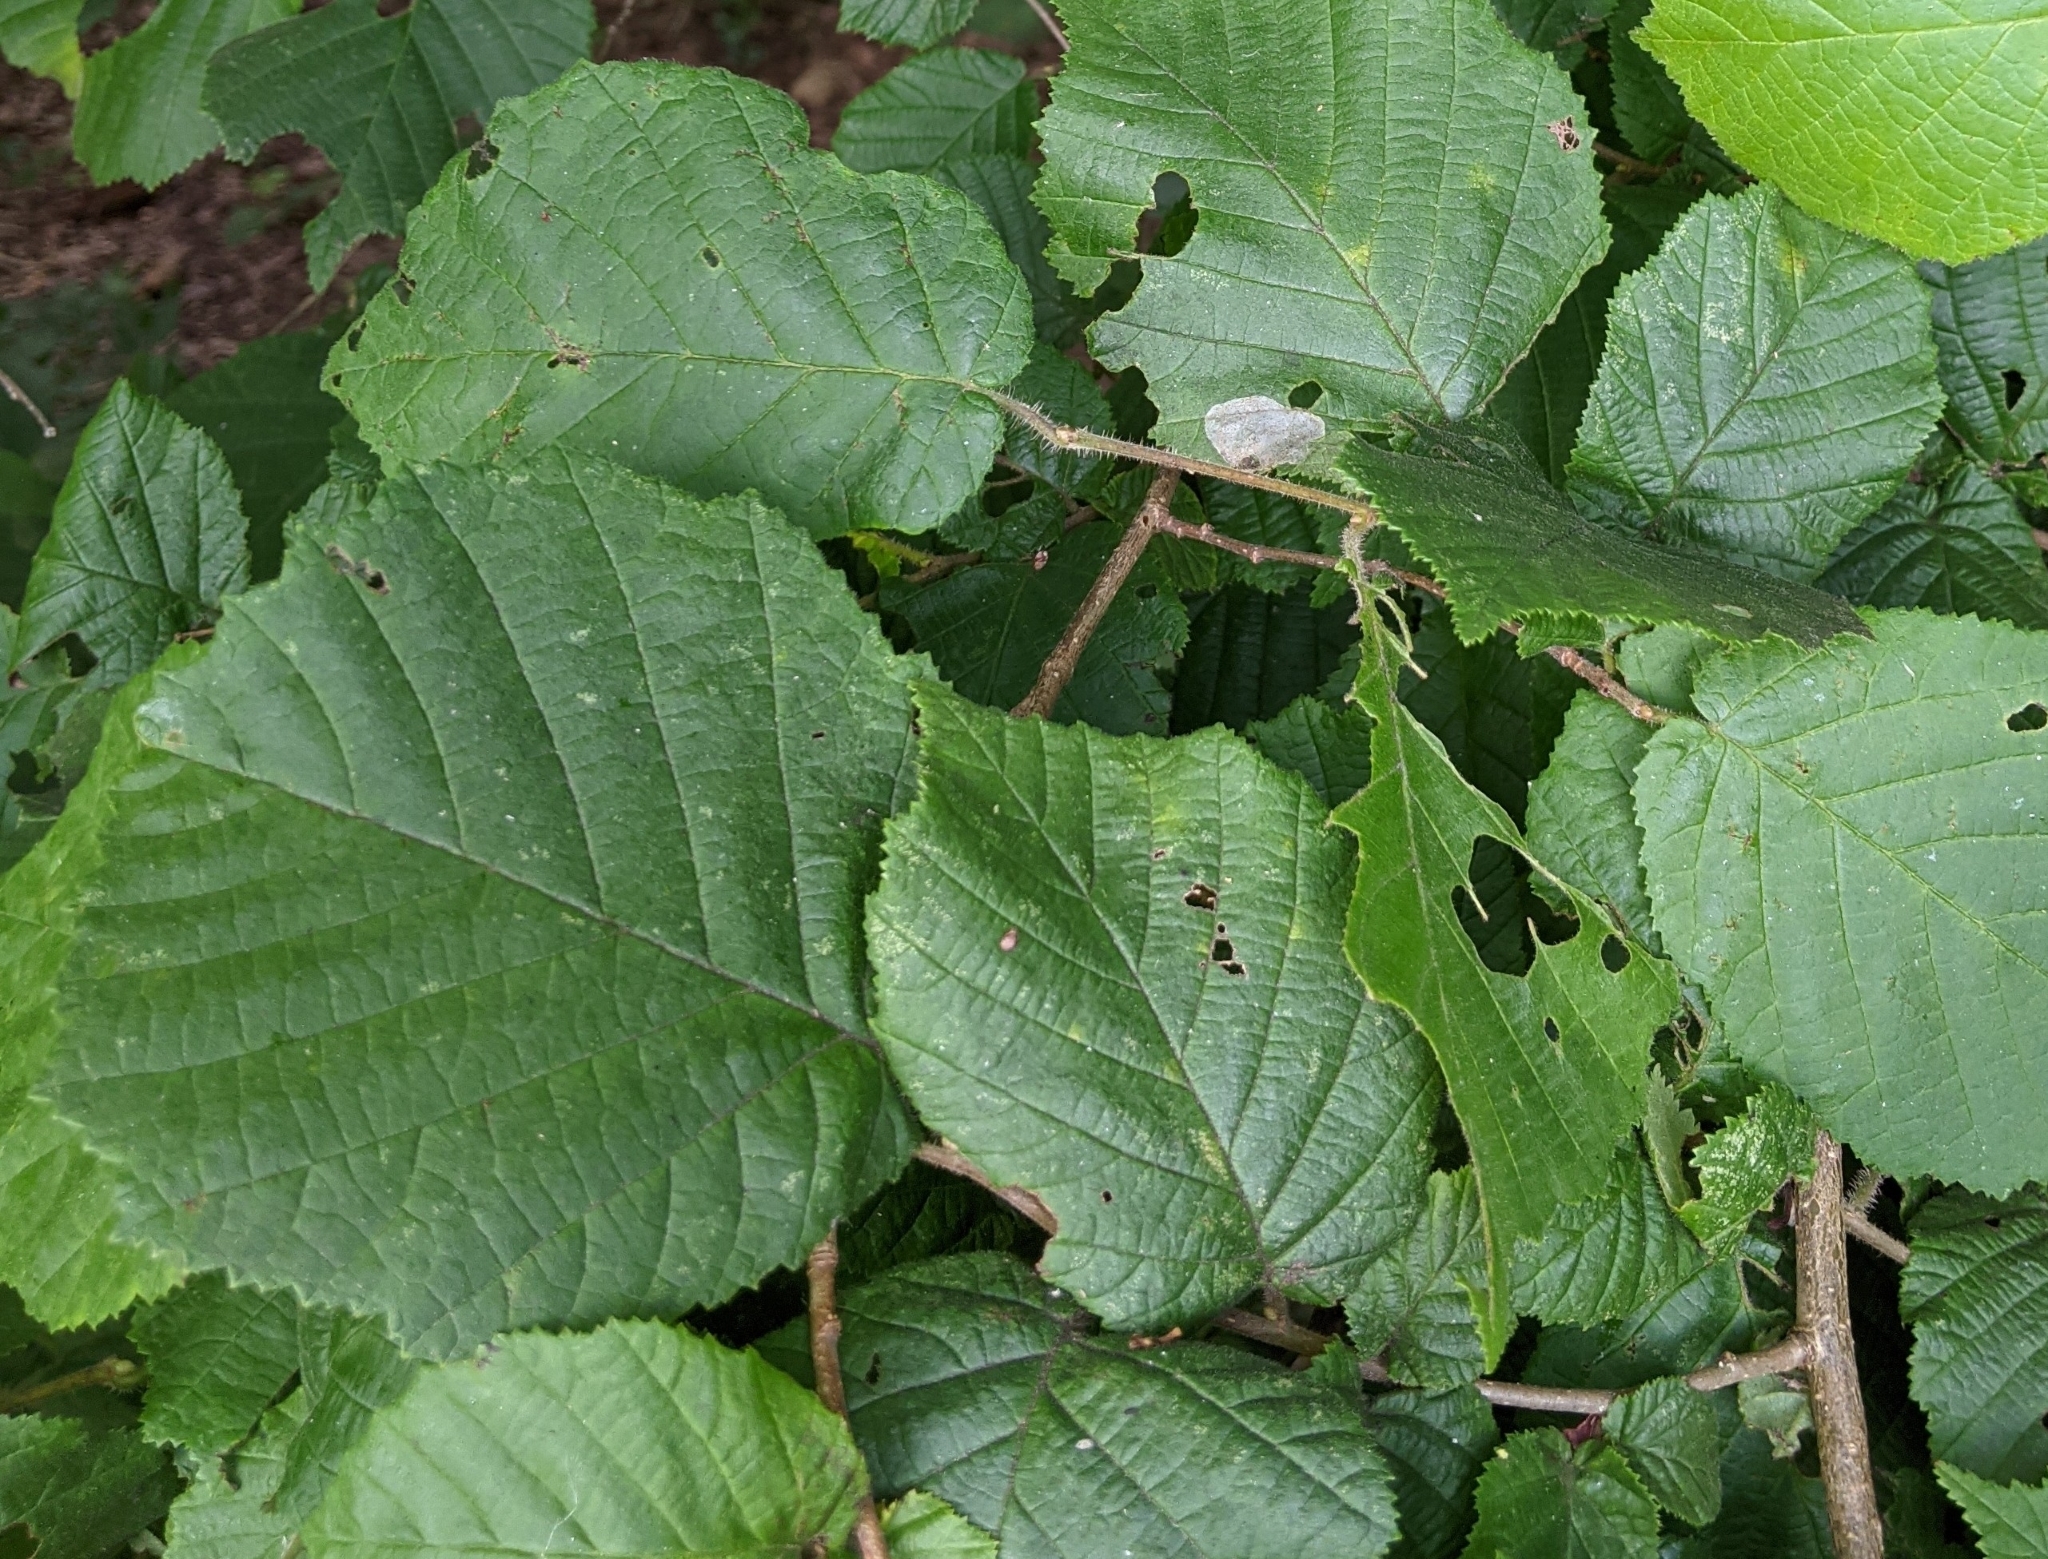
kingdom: Plantae
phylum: Tracheophyta
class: Magnoliopsida
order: Fagales
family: Betulaceae
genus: Corylus
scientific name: Corylus avellana
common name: European hazel
